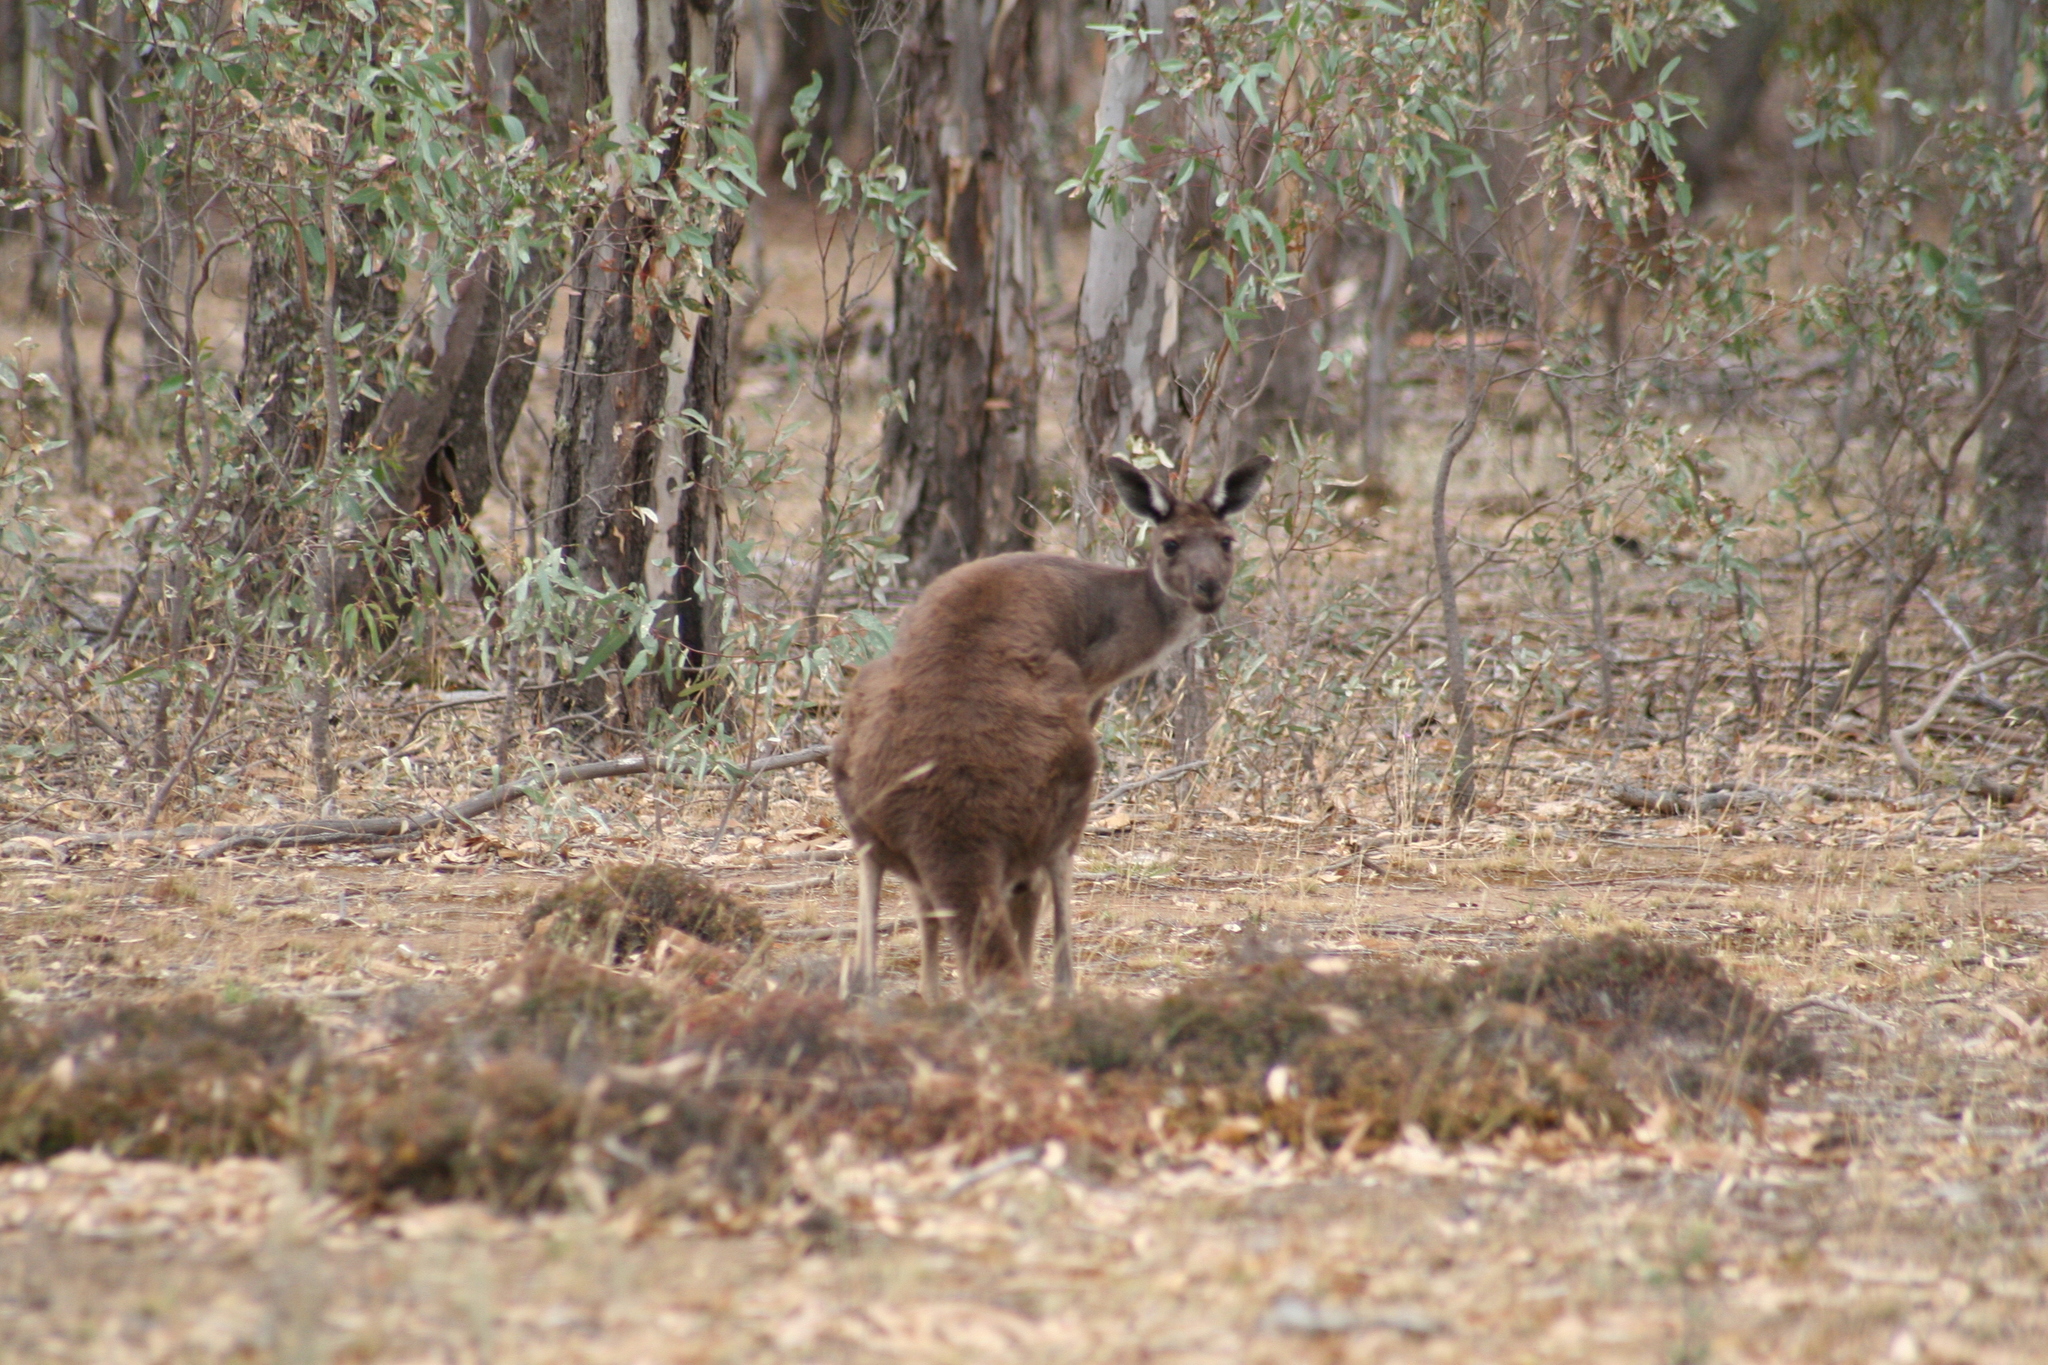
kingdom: Animalia
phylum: Chordata
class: Mammalia
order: Diprotodontia
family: Macropodidae
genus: Macropus
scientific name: Macropus fuliginosus
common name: Western grey kangaroo
